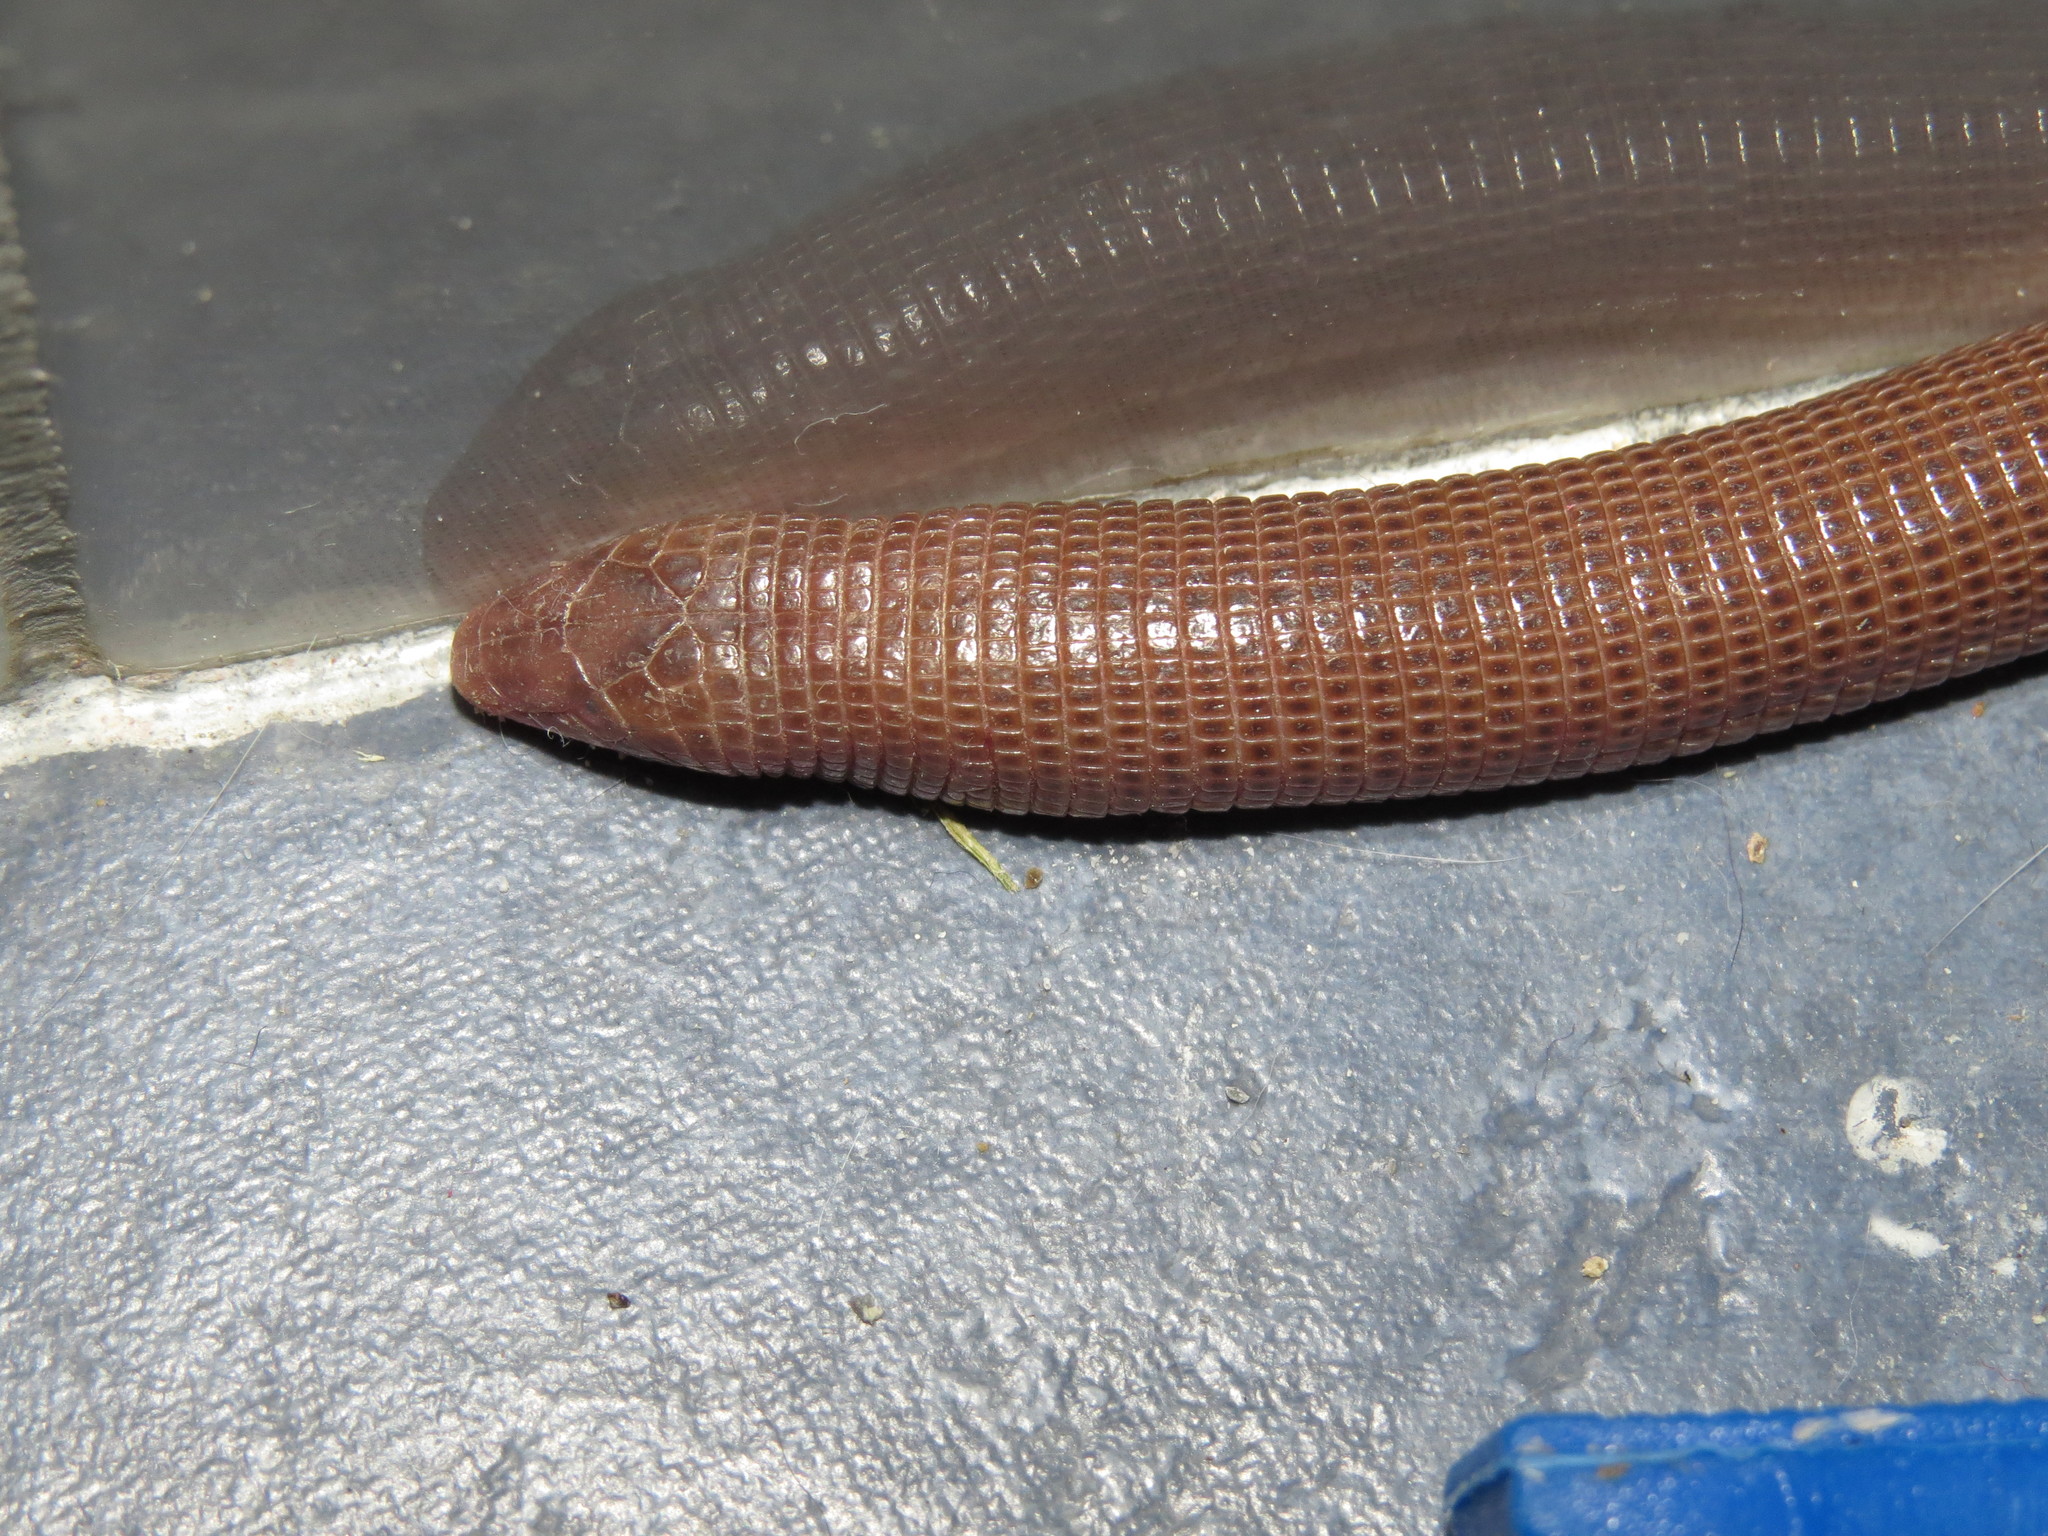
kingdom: Animalia
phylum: Chordata
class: Squamata
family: Amphisbaenidae
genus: Amphisbaena
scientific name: Amphisbaena darwinii
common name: Darwin's ringed worm lizard
